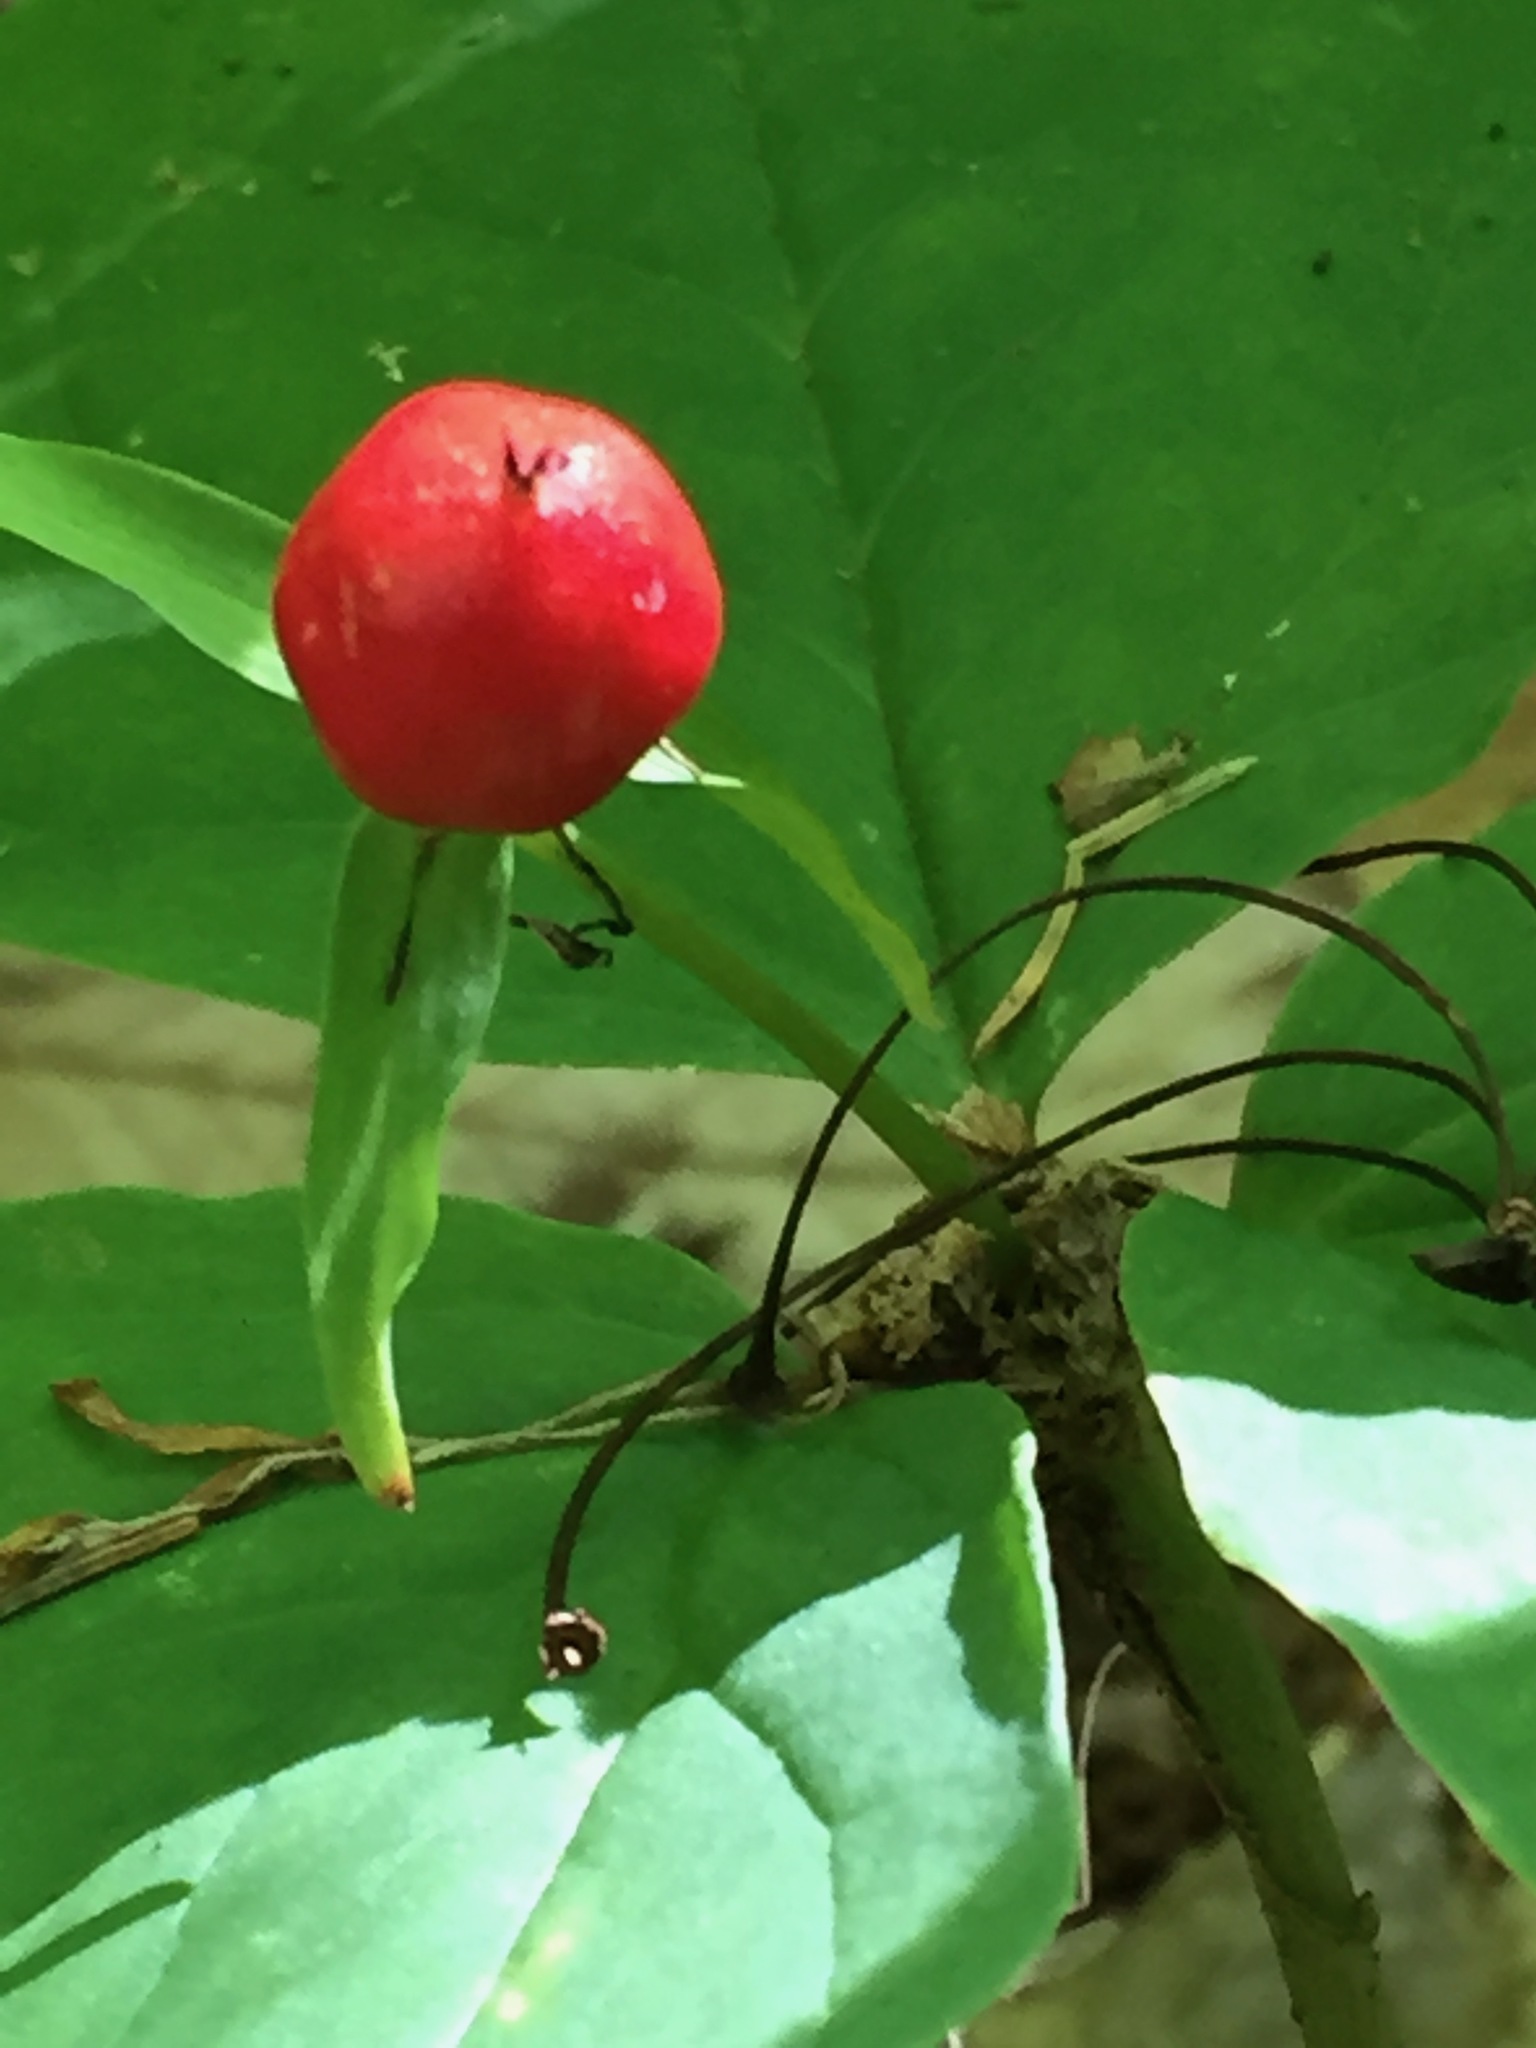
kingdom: Plantae
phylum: Tracheophyta
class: Liliopsida
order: Liliales
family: Melanthiaceae
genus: Trillium
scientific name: Trillium undulatum
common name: Paint trillium
